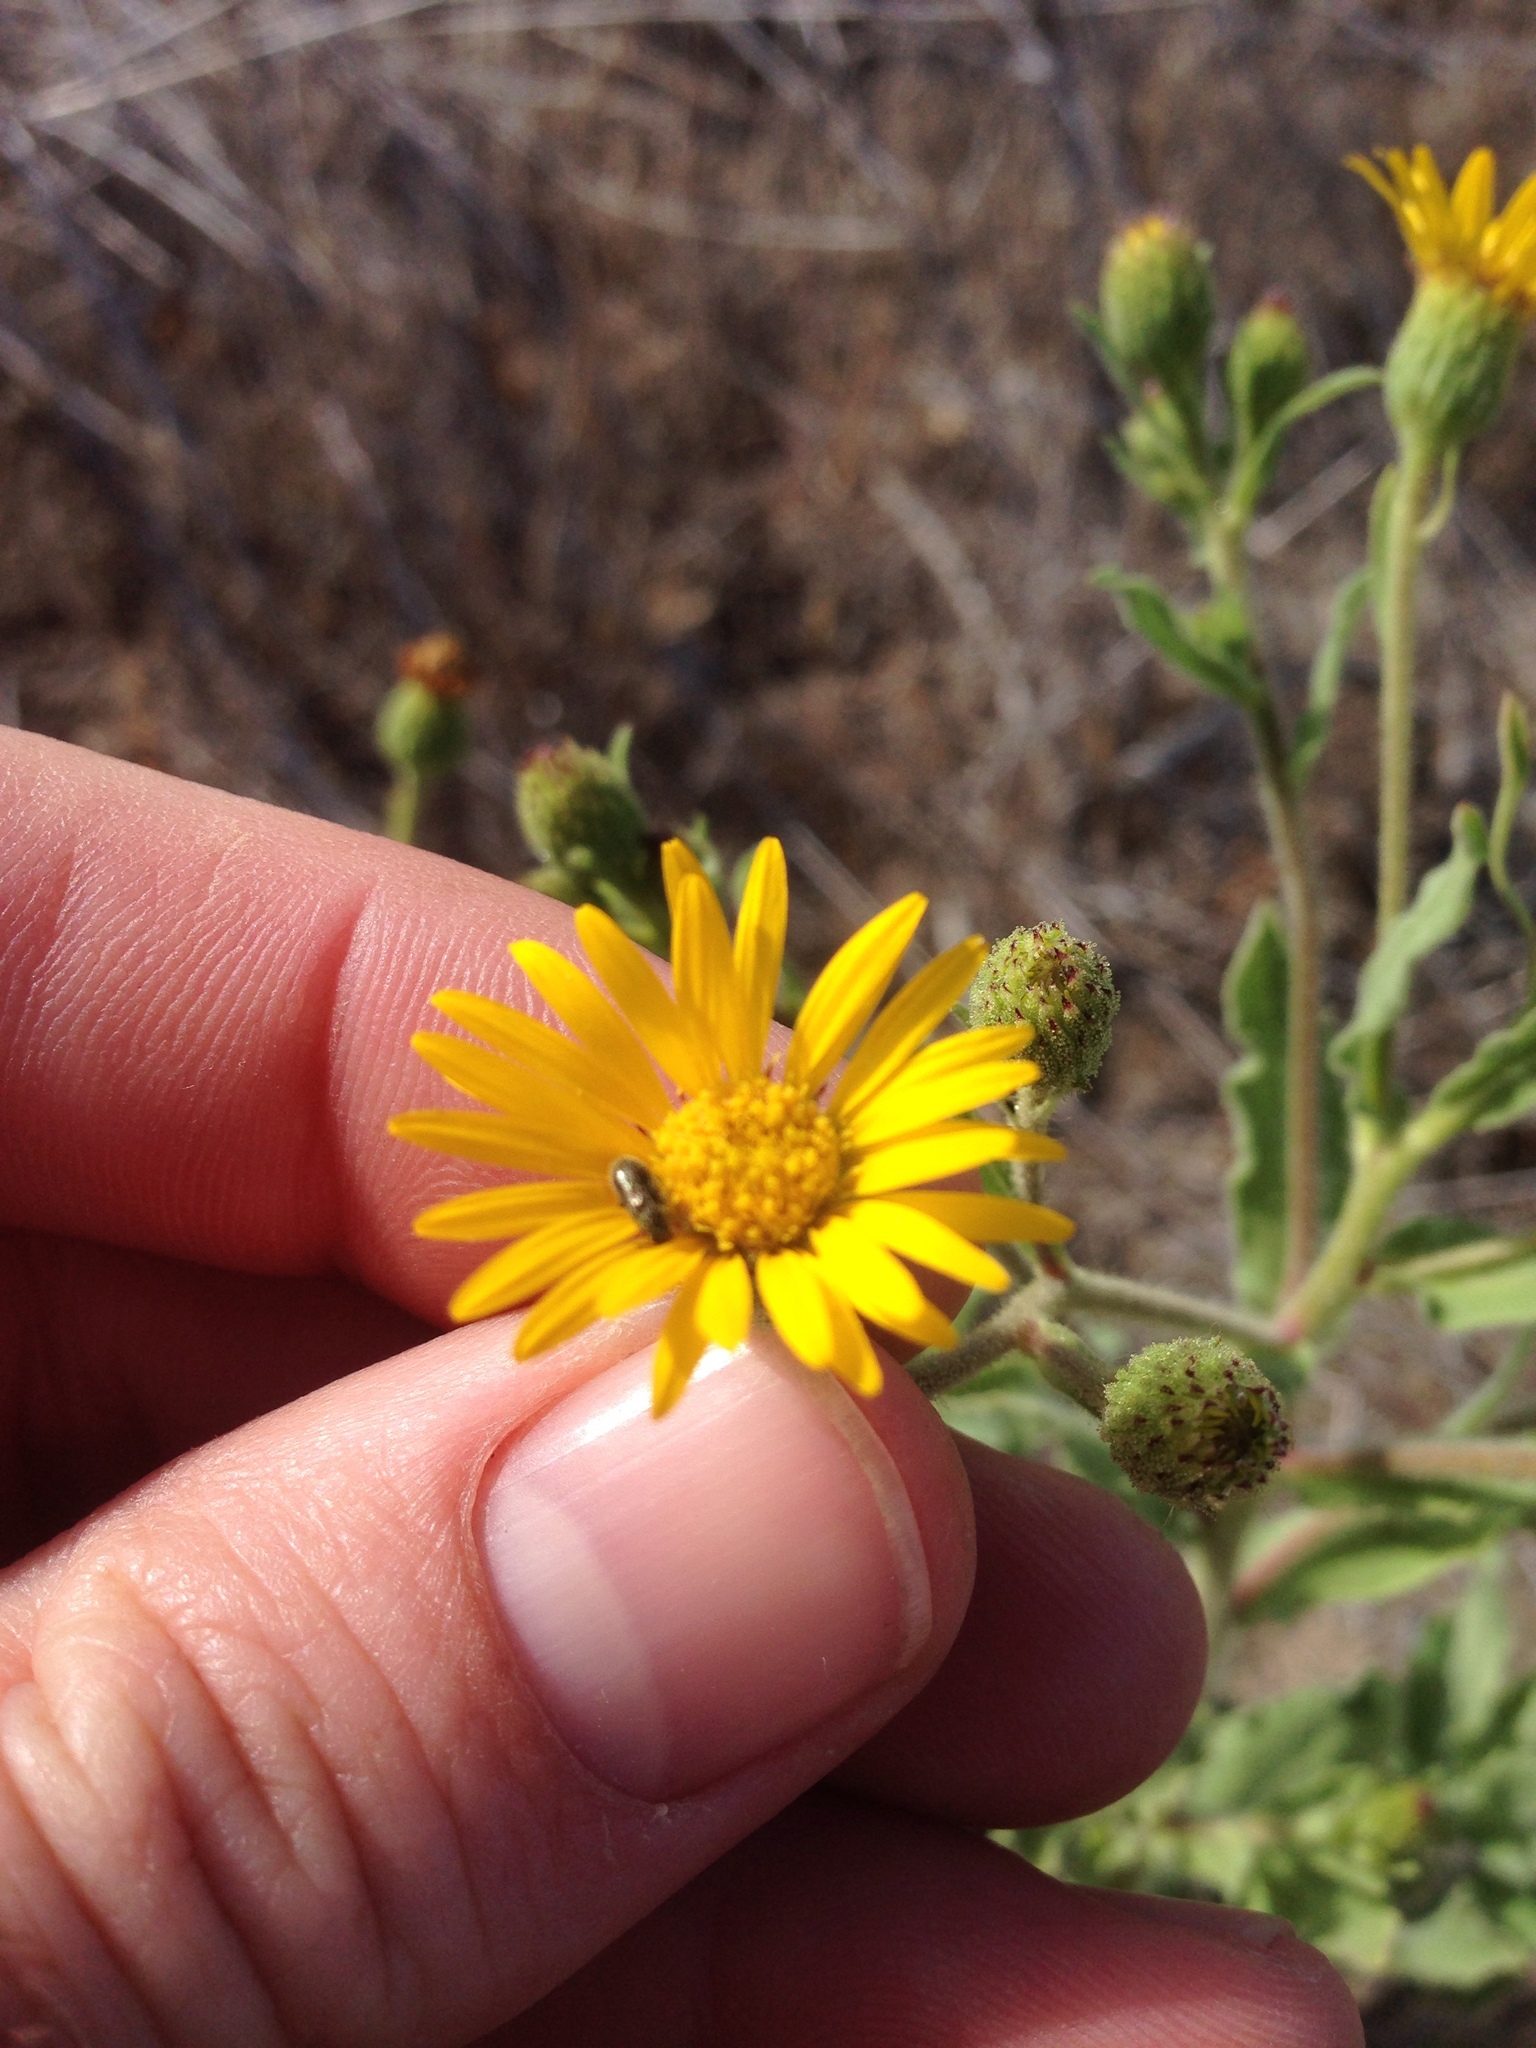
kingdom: Plantae
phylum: Tracheophyta
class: Magnoliopsida
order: Asterales
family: Asteraceae
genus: Heterotheca
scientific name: Heterotheca grandiflora
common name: Telegraphweed
